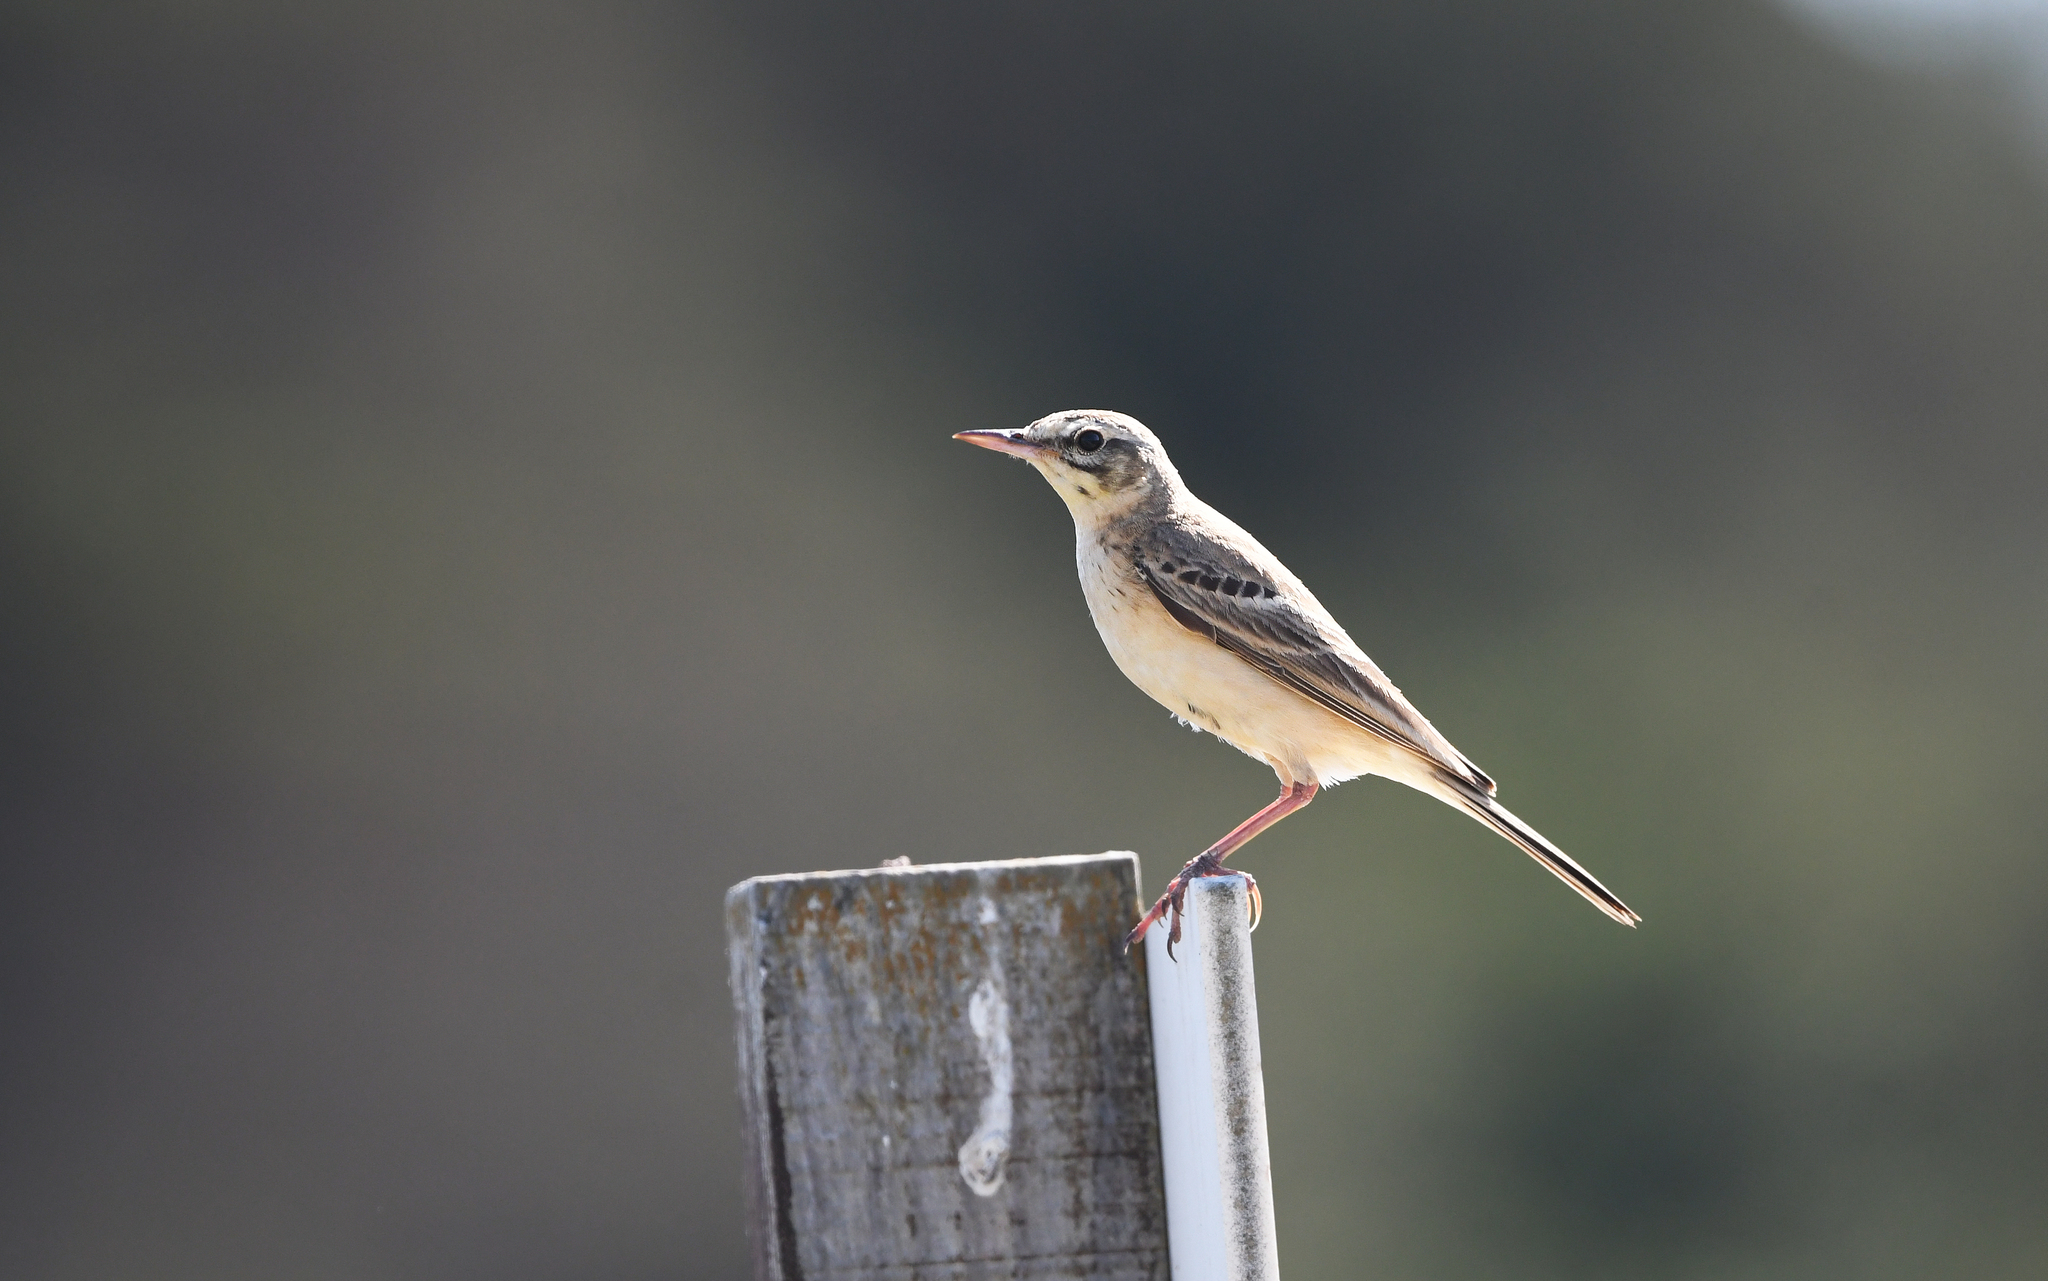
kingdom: Animalia
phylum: Chordata
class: Aves
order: Passeriformes
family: Motacillidae
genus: Anthus
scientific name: Anthus campestris
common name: Tawny pipit
